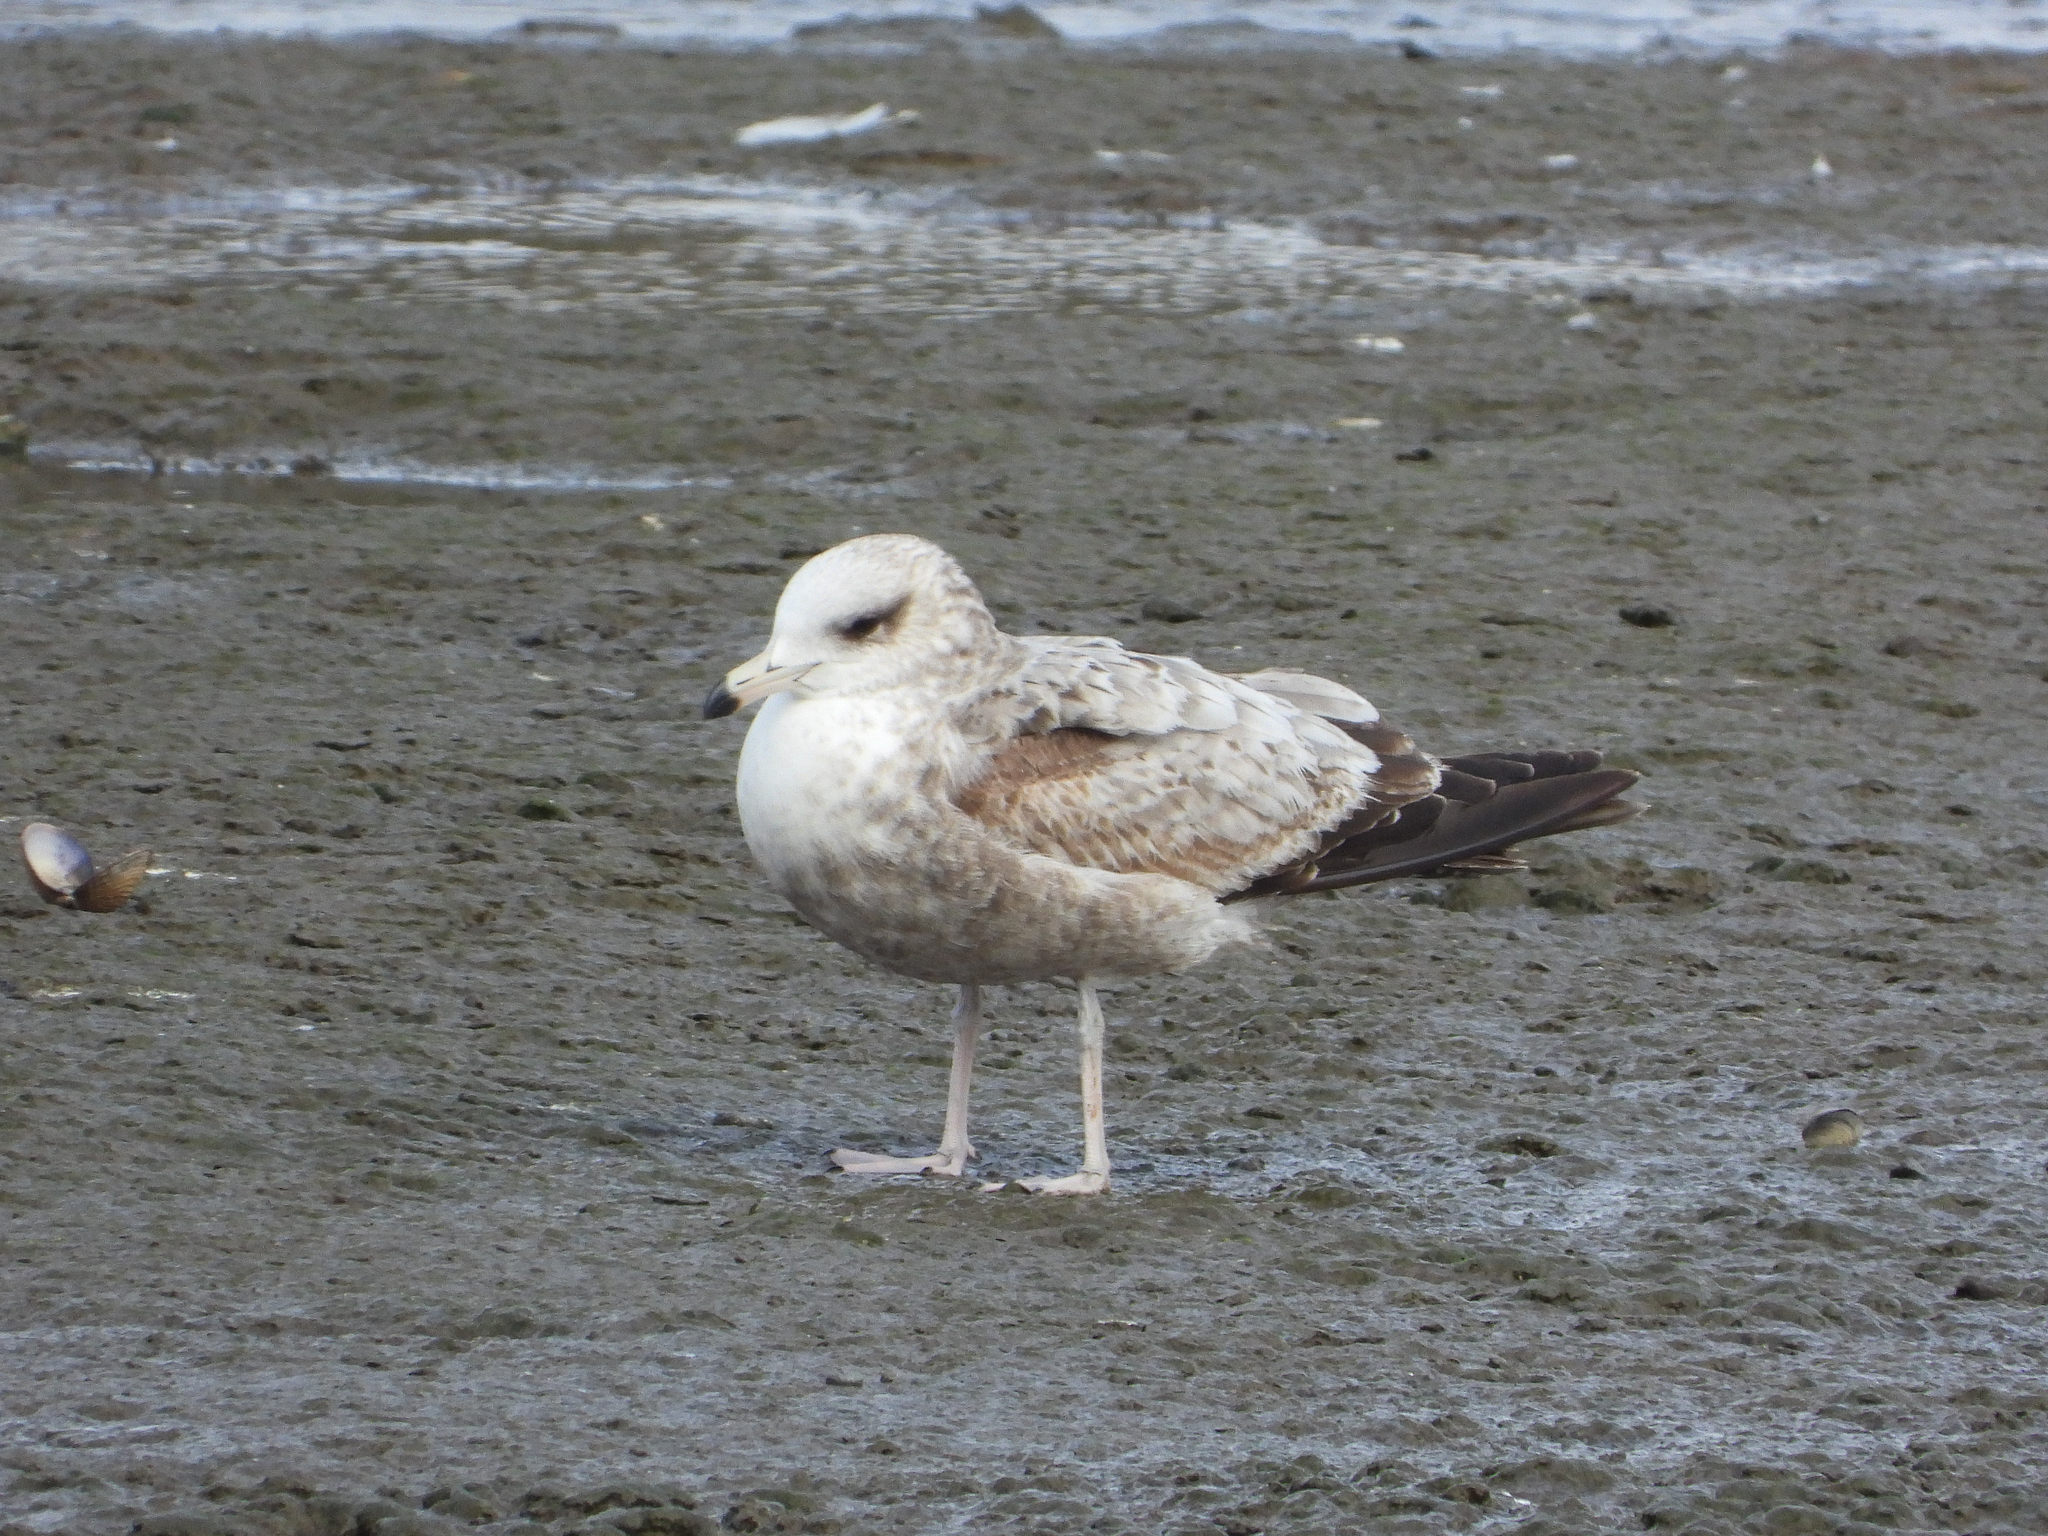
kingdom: Animalia
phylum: Chordata
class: Aves
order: Charadriiformes
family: Laridae
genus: Larus
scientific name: Larus californicus
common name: California gull
